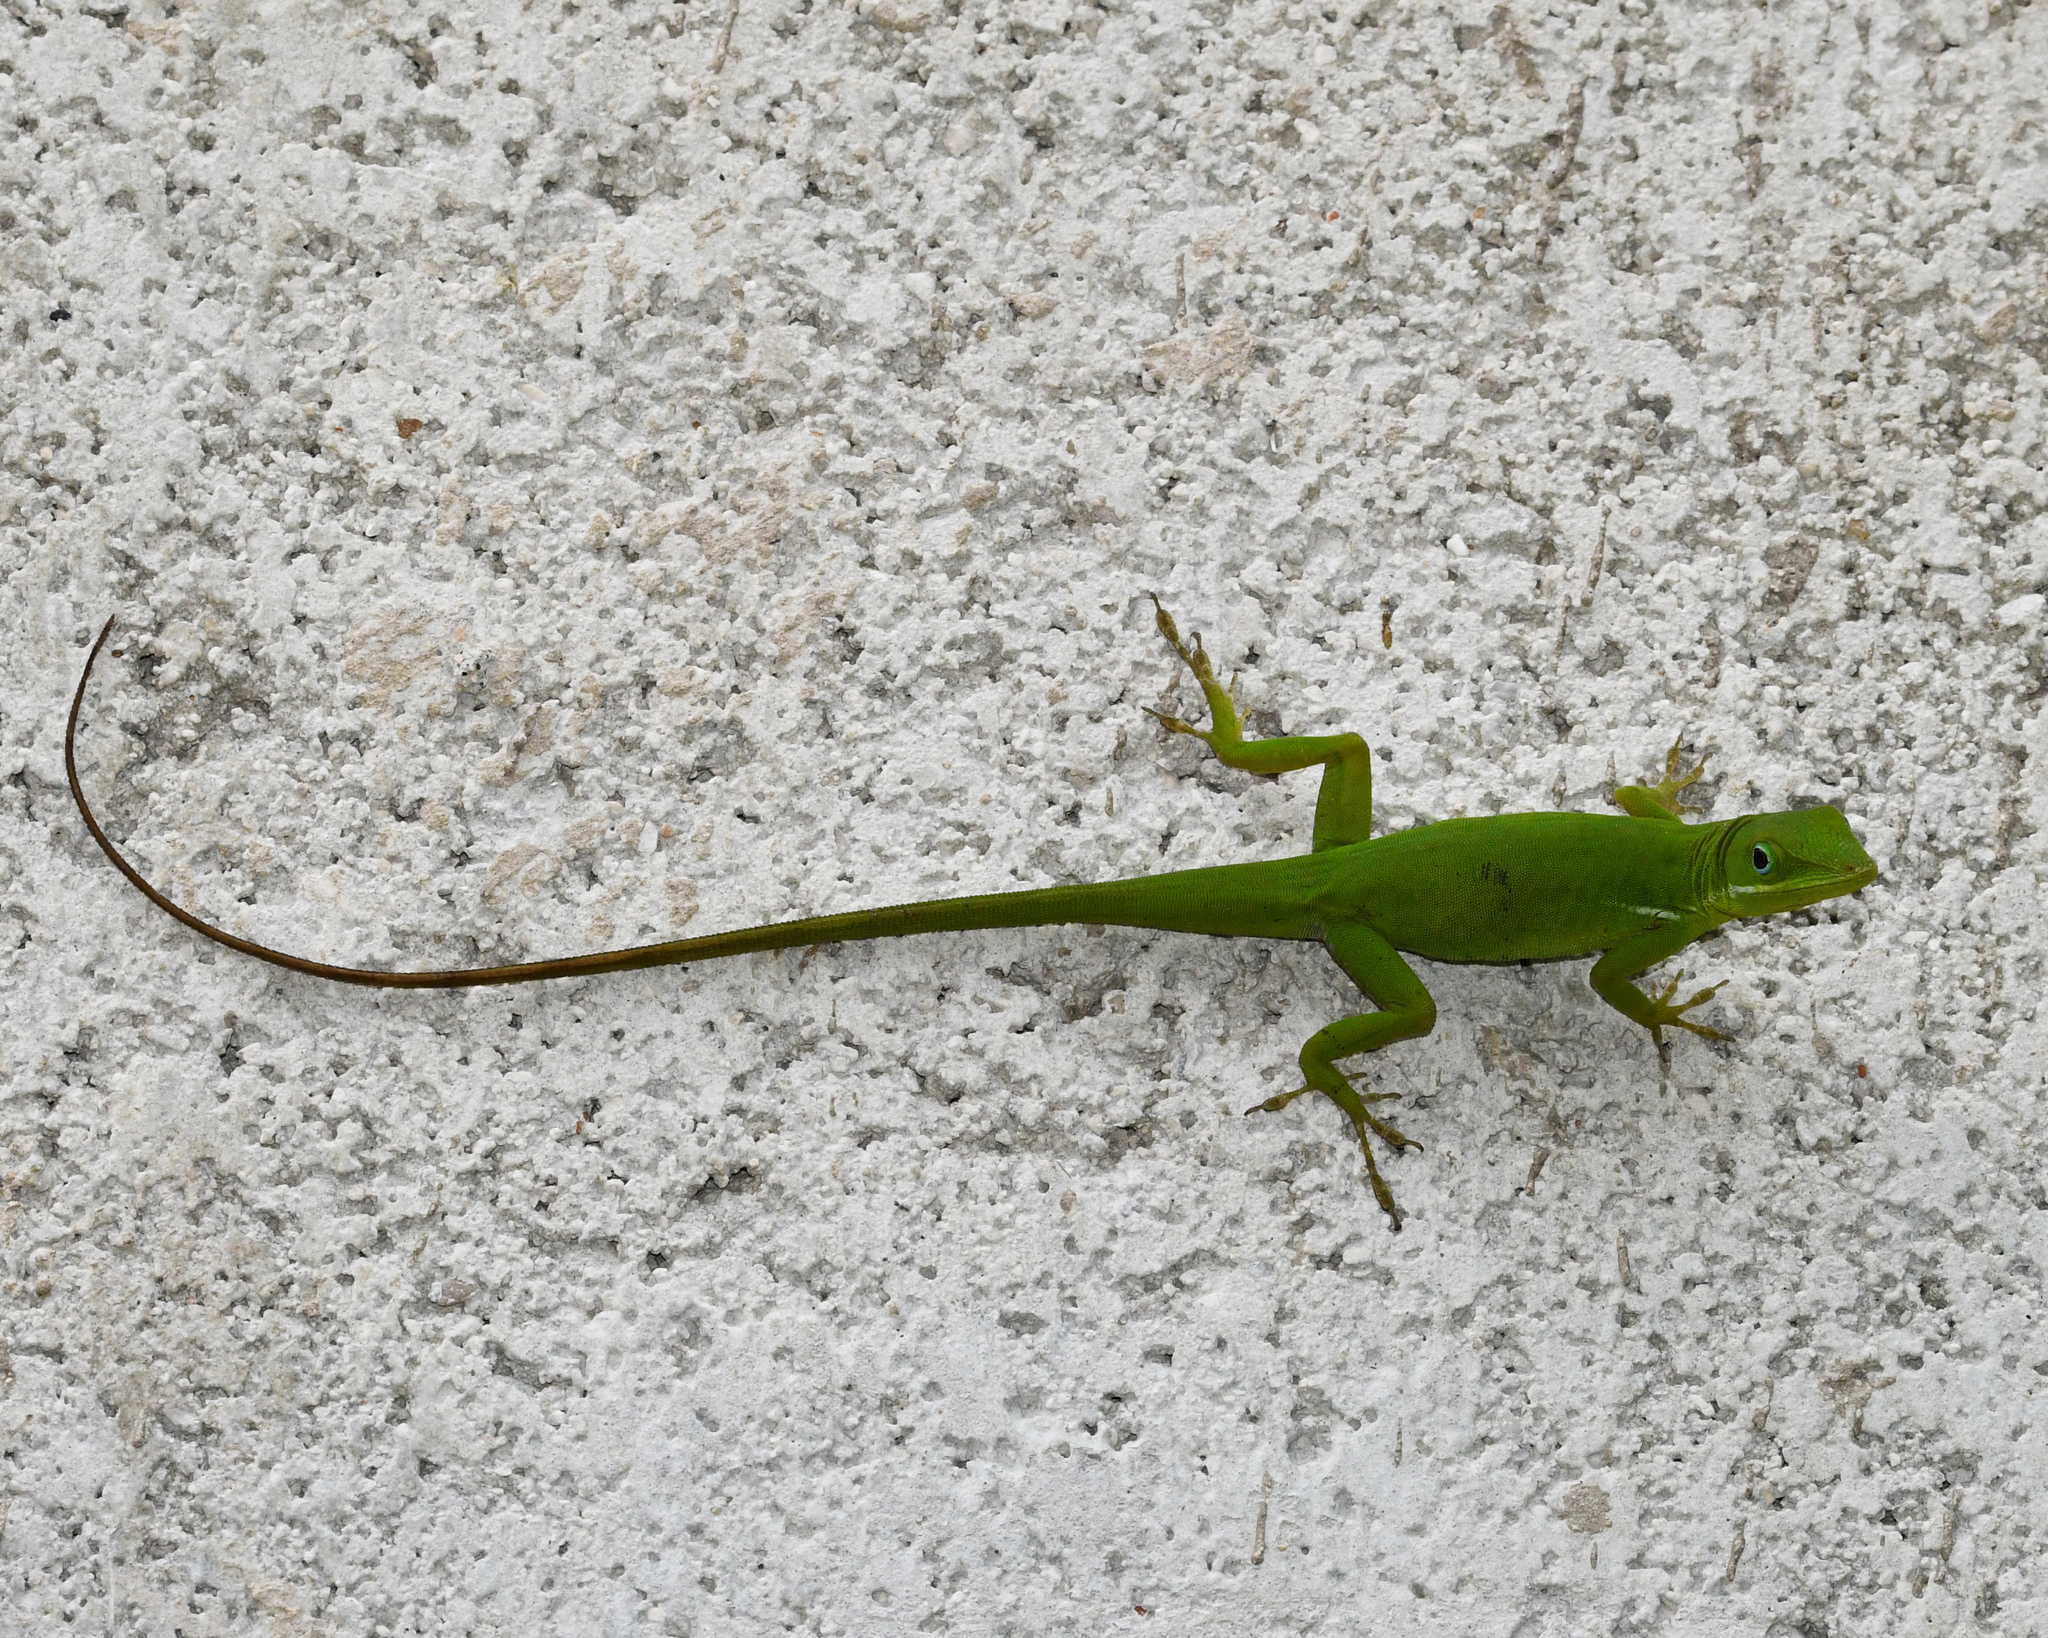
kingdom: Animalia
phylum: Chordata
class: Squamata
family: Dactyloidae
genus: Anolis
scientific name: Anolis viridius
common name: Barahona green anole
